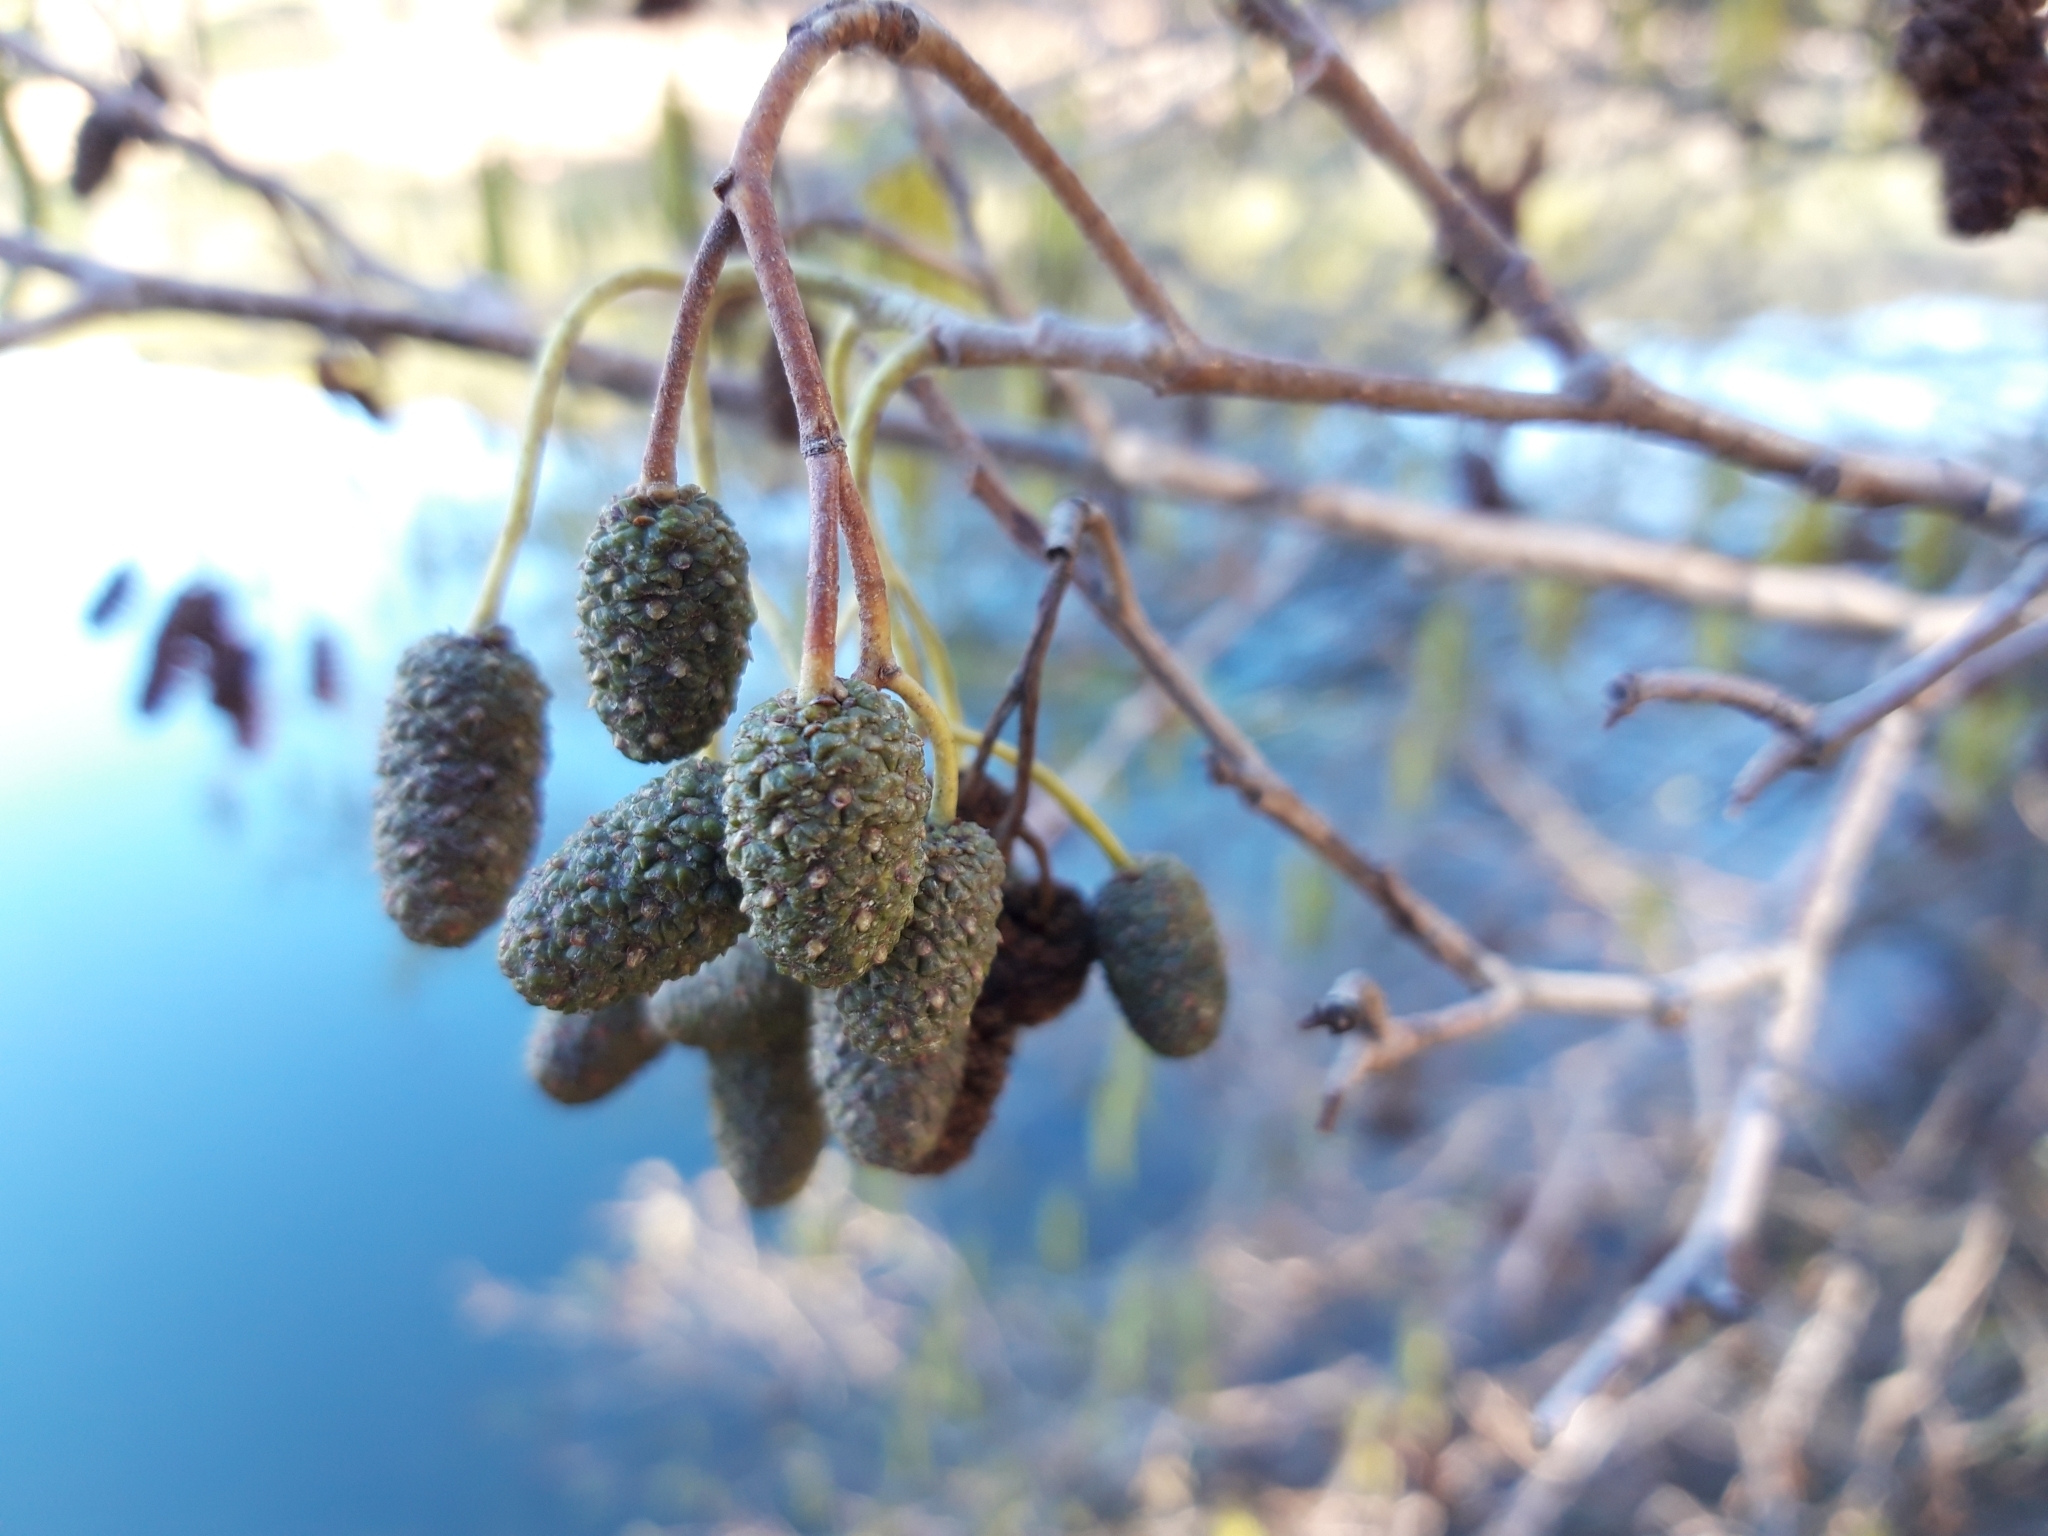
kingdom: Plantae
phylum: Tracheophyta
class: Magnoliopsida
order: Fagales
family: Betulaceae
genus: Alnus
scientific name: Alnus lusitanica
